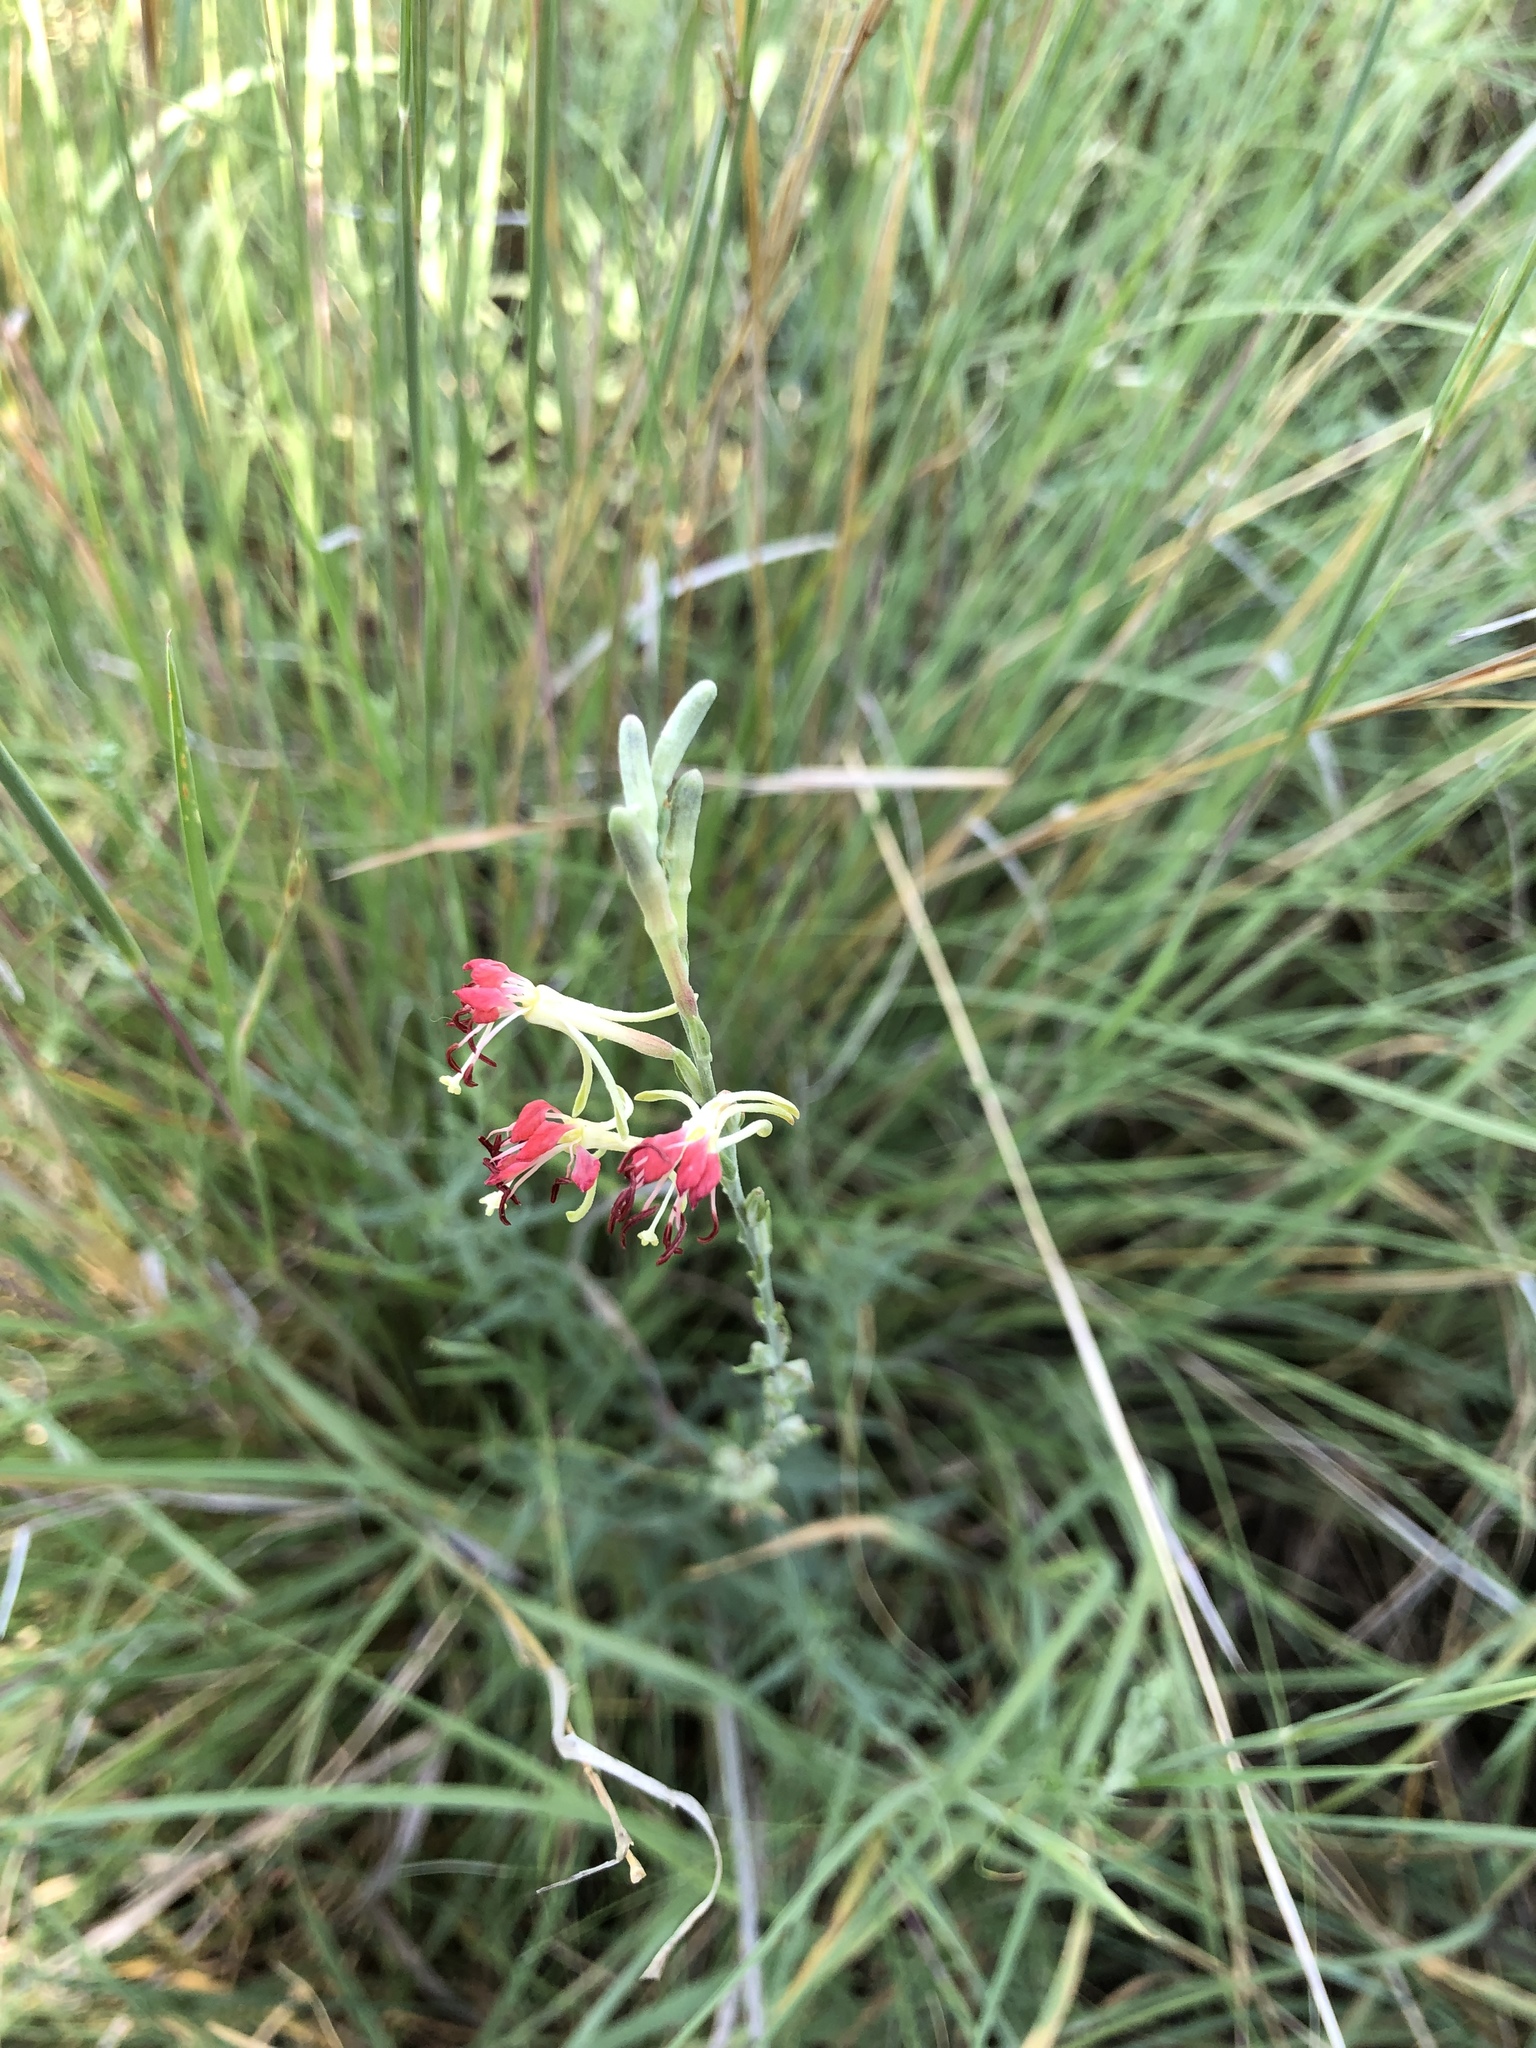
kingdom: Plantae
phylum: Tracheophyta
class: Magnoliopsida
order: Myrtales
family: Onagraceae
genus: Oenothera
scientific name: Oenothera suffrutescens
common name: Scarlet beeblossom
